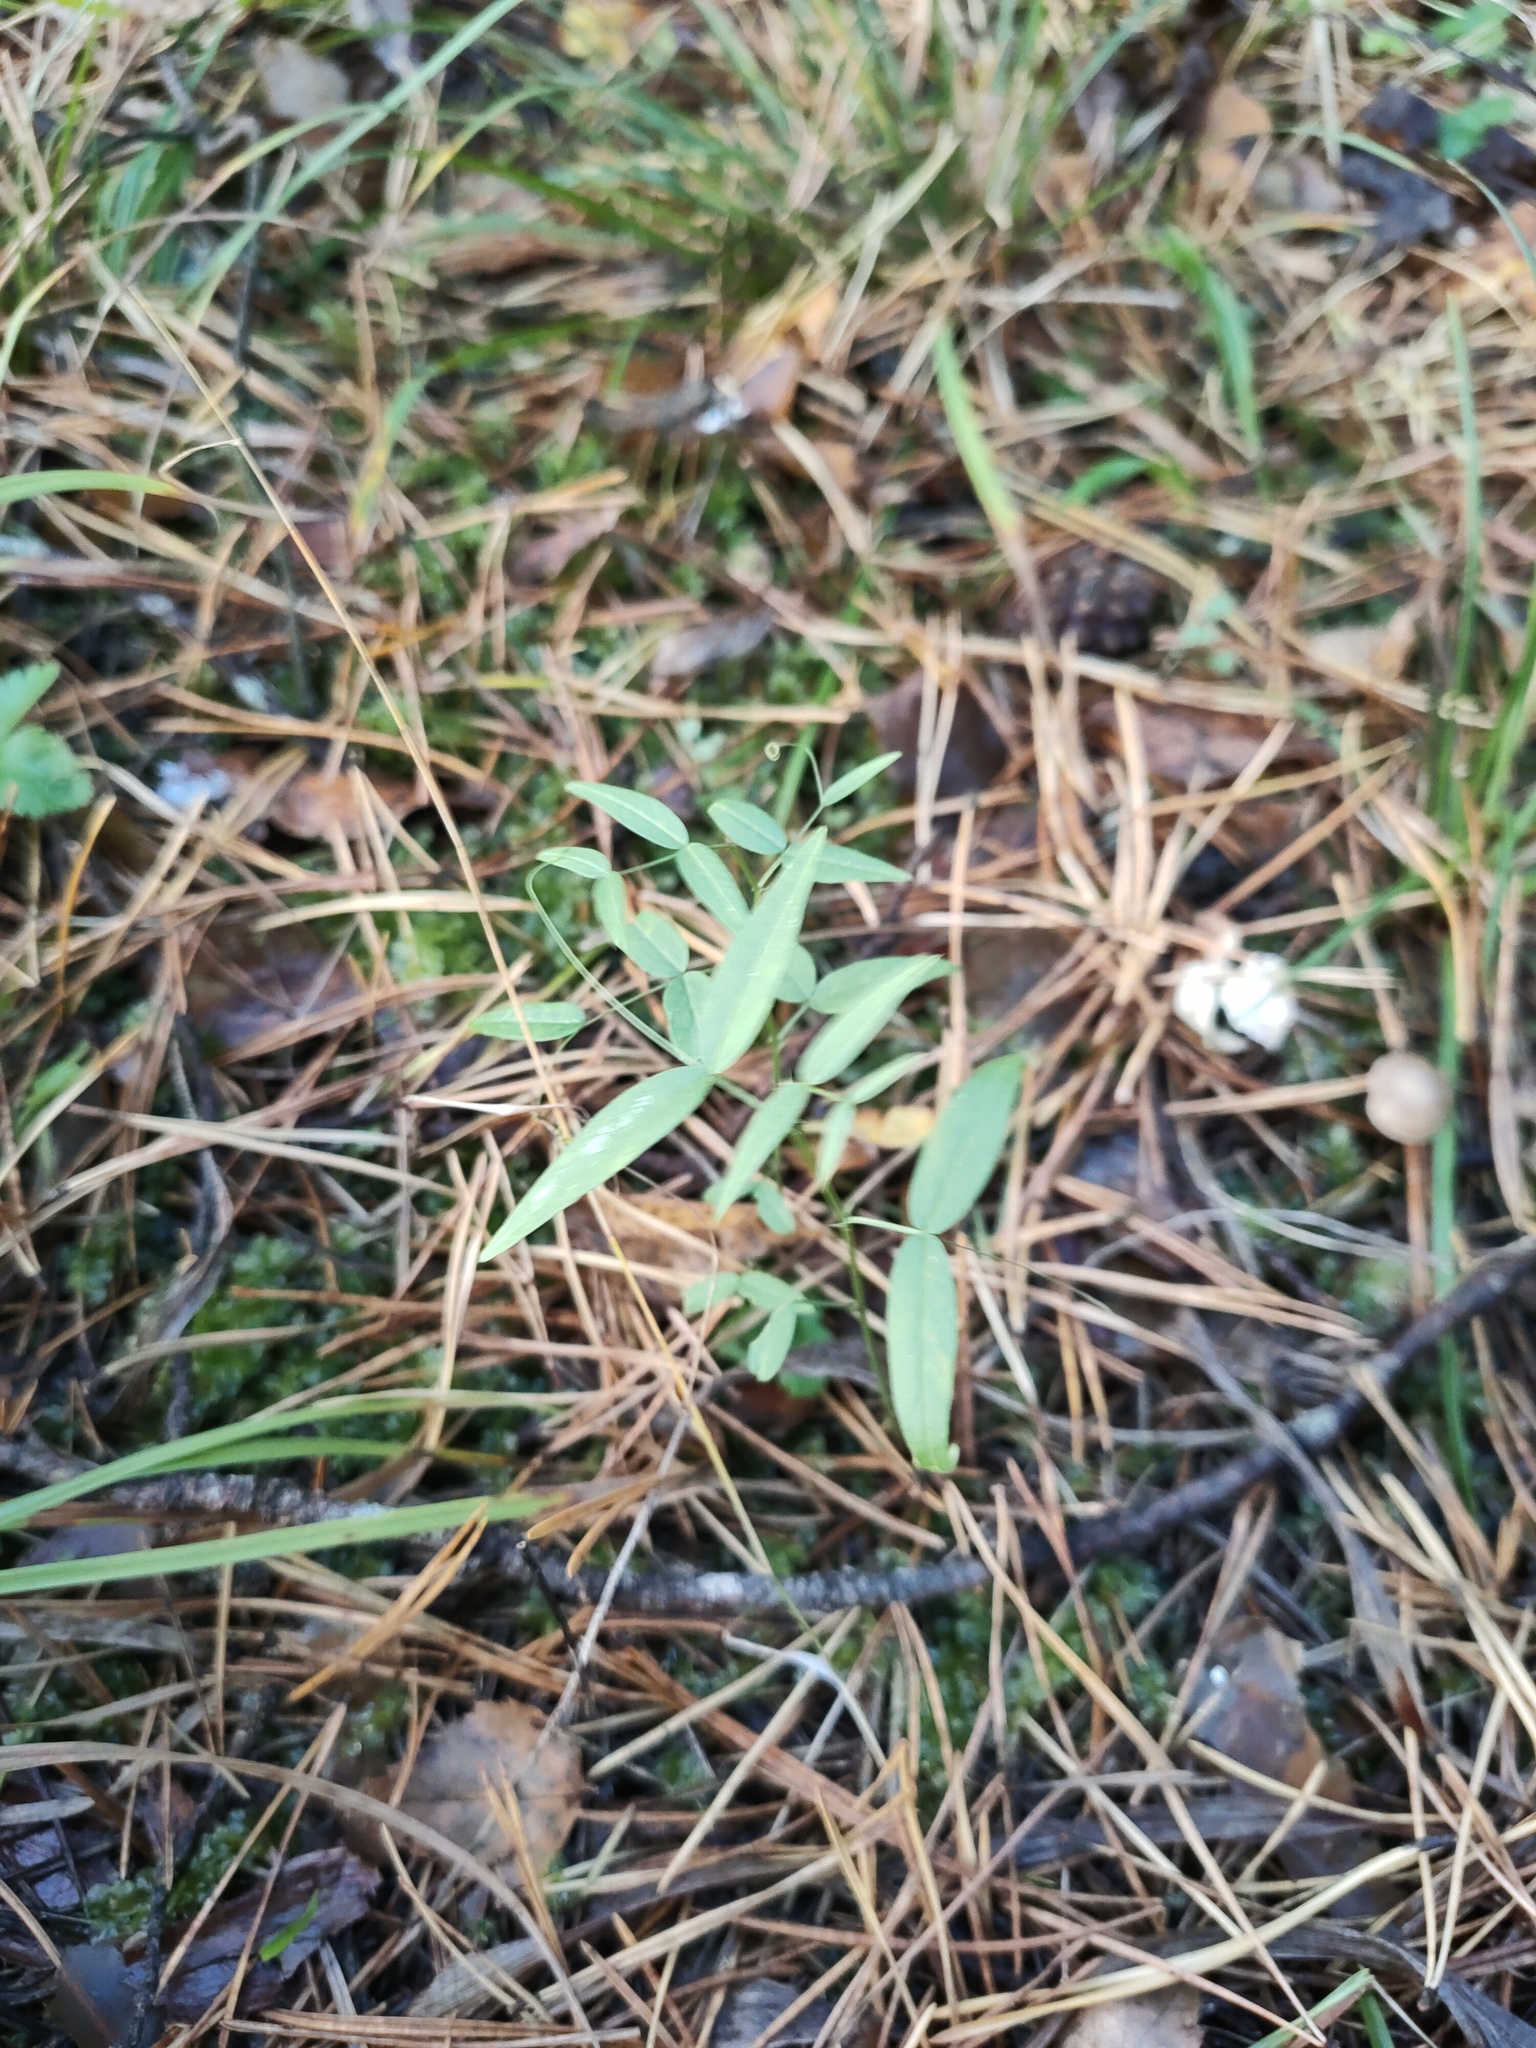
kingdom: Plantae
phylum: Tracheophyta
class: Magnoliopsida
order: Fabales
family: Fabaceae
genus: Vicia
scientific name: Vicia sepium
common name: Bush vetch
